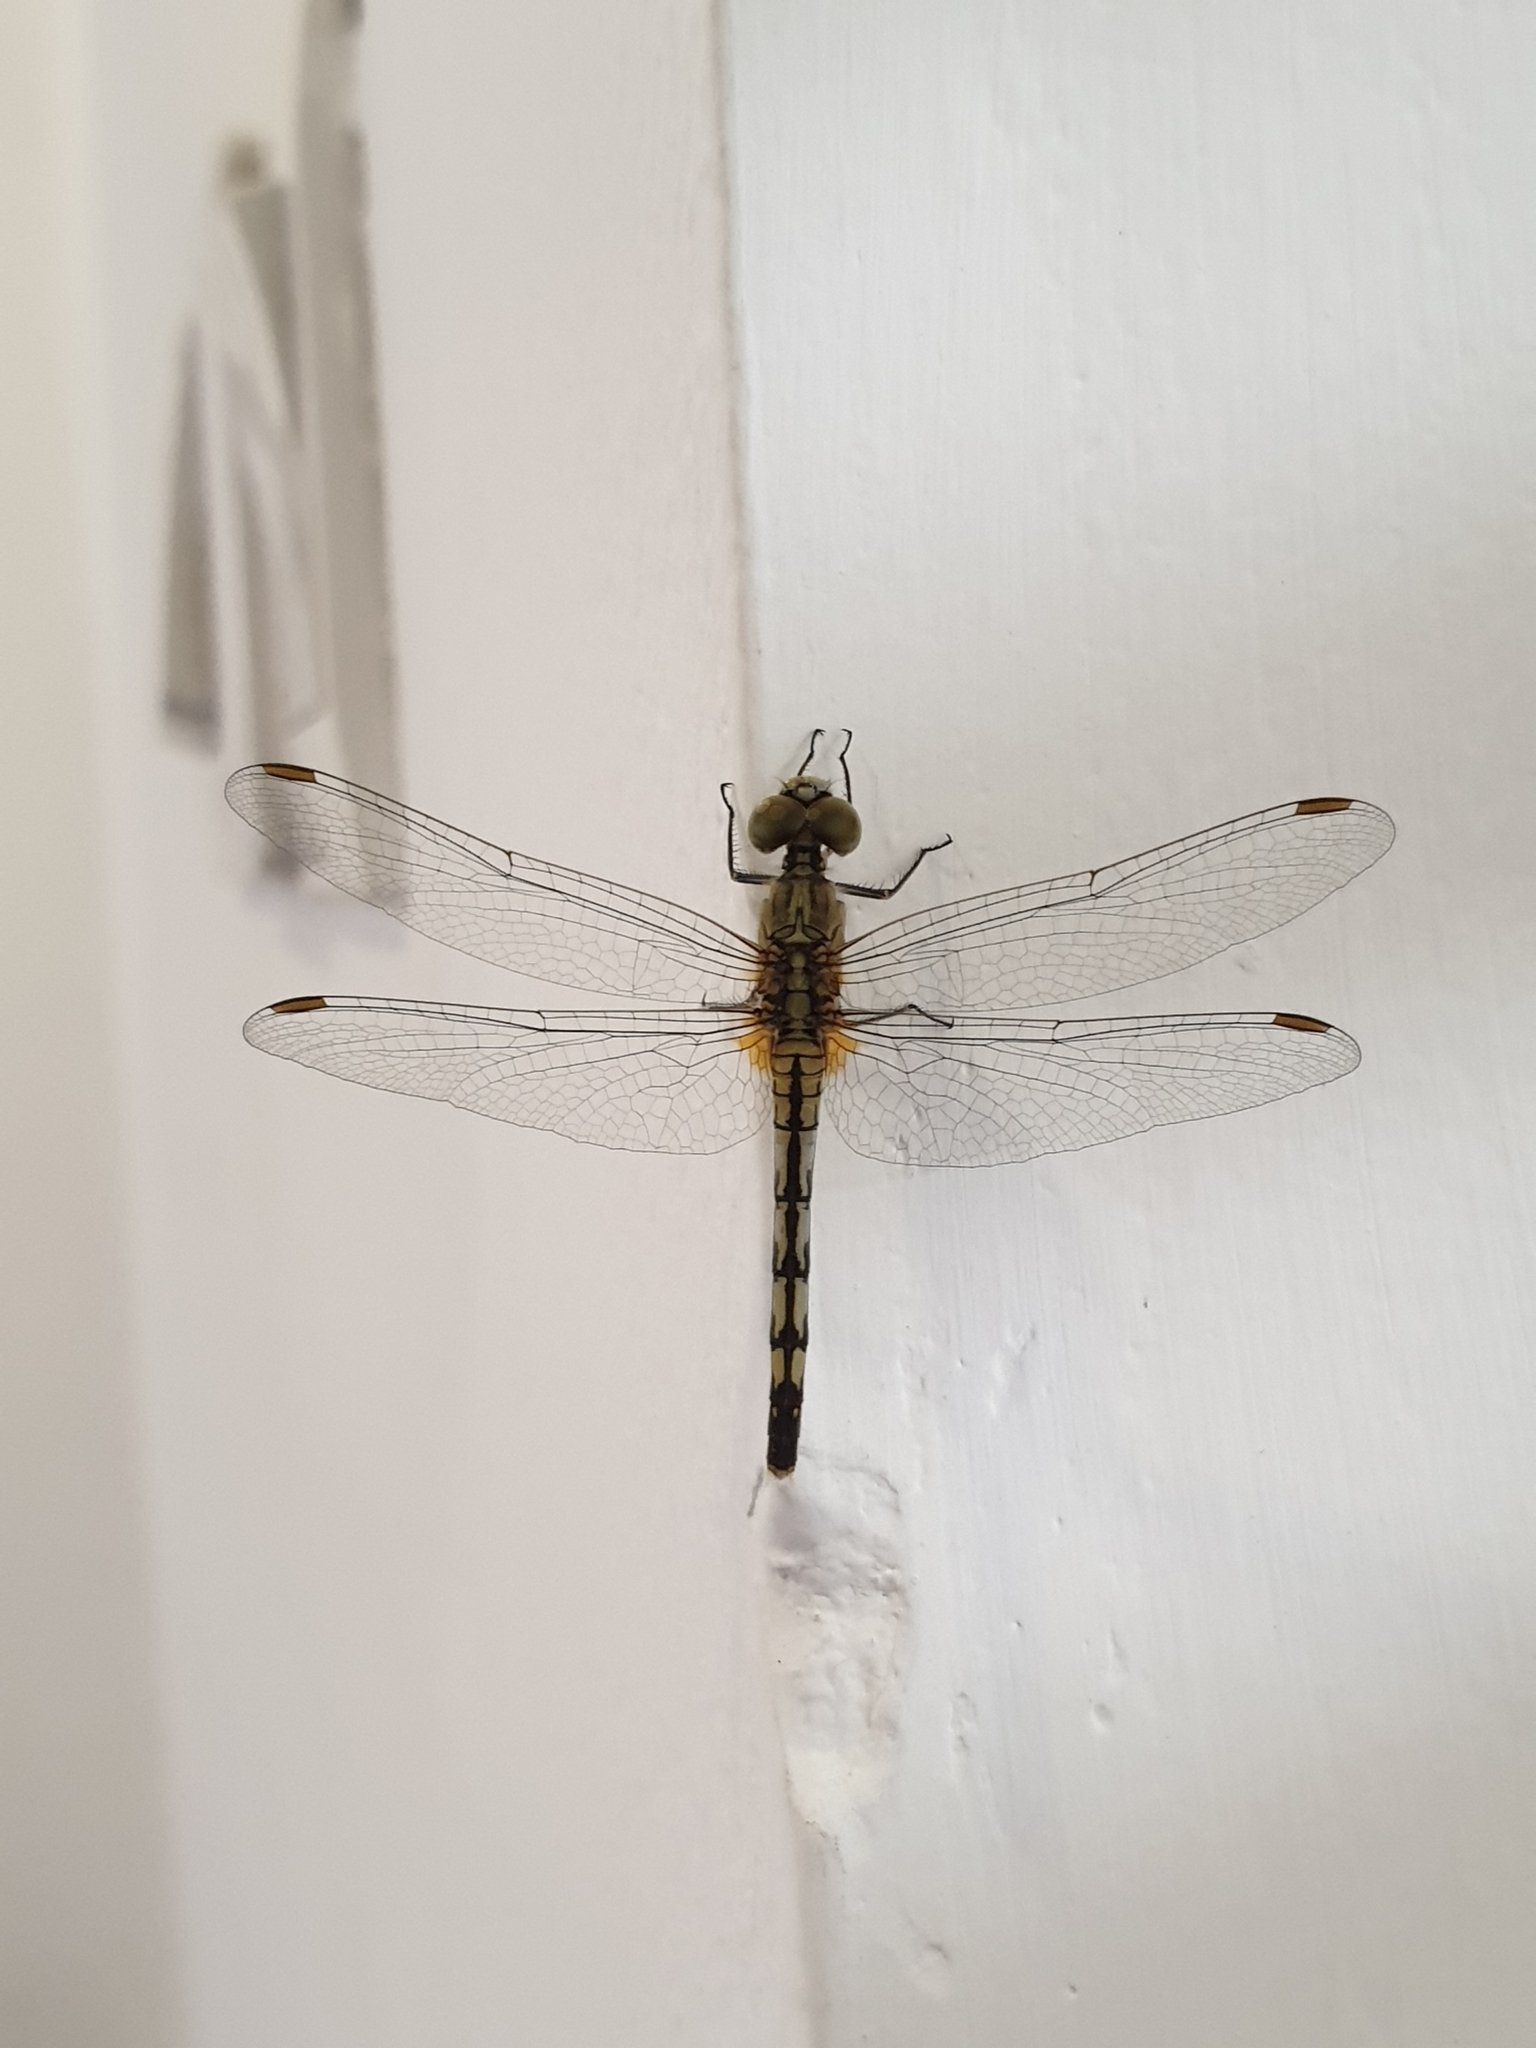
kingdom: Animalia
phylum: Arthropoda
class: Insecta
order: Odonata
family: Libellulidae
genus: Diplacodes
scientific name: Diplacodes trivialis
